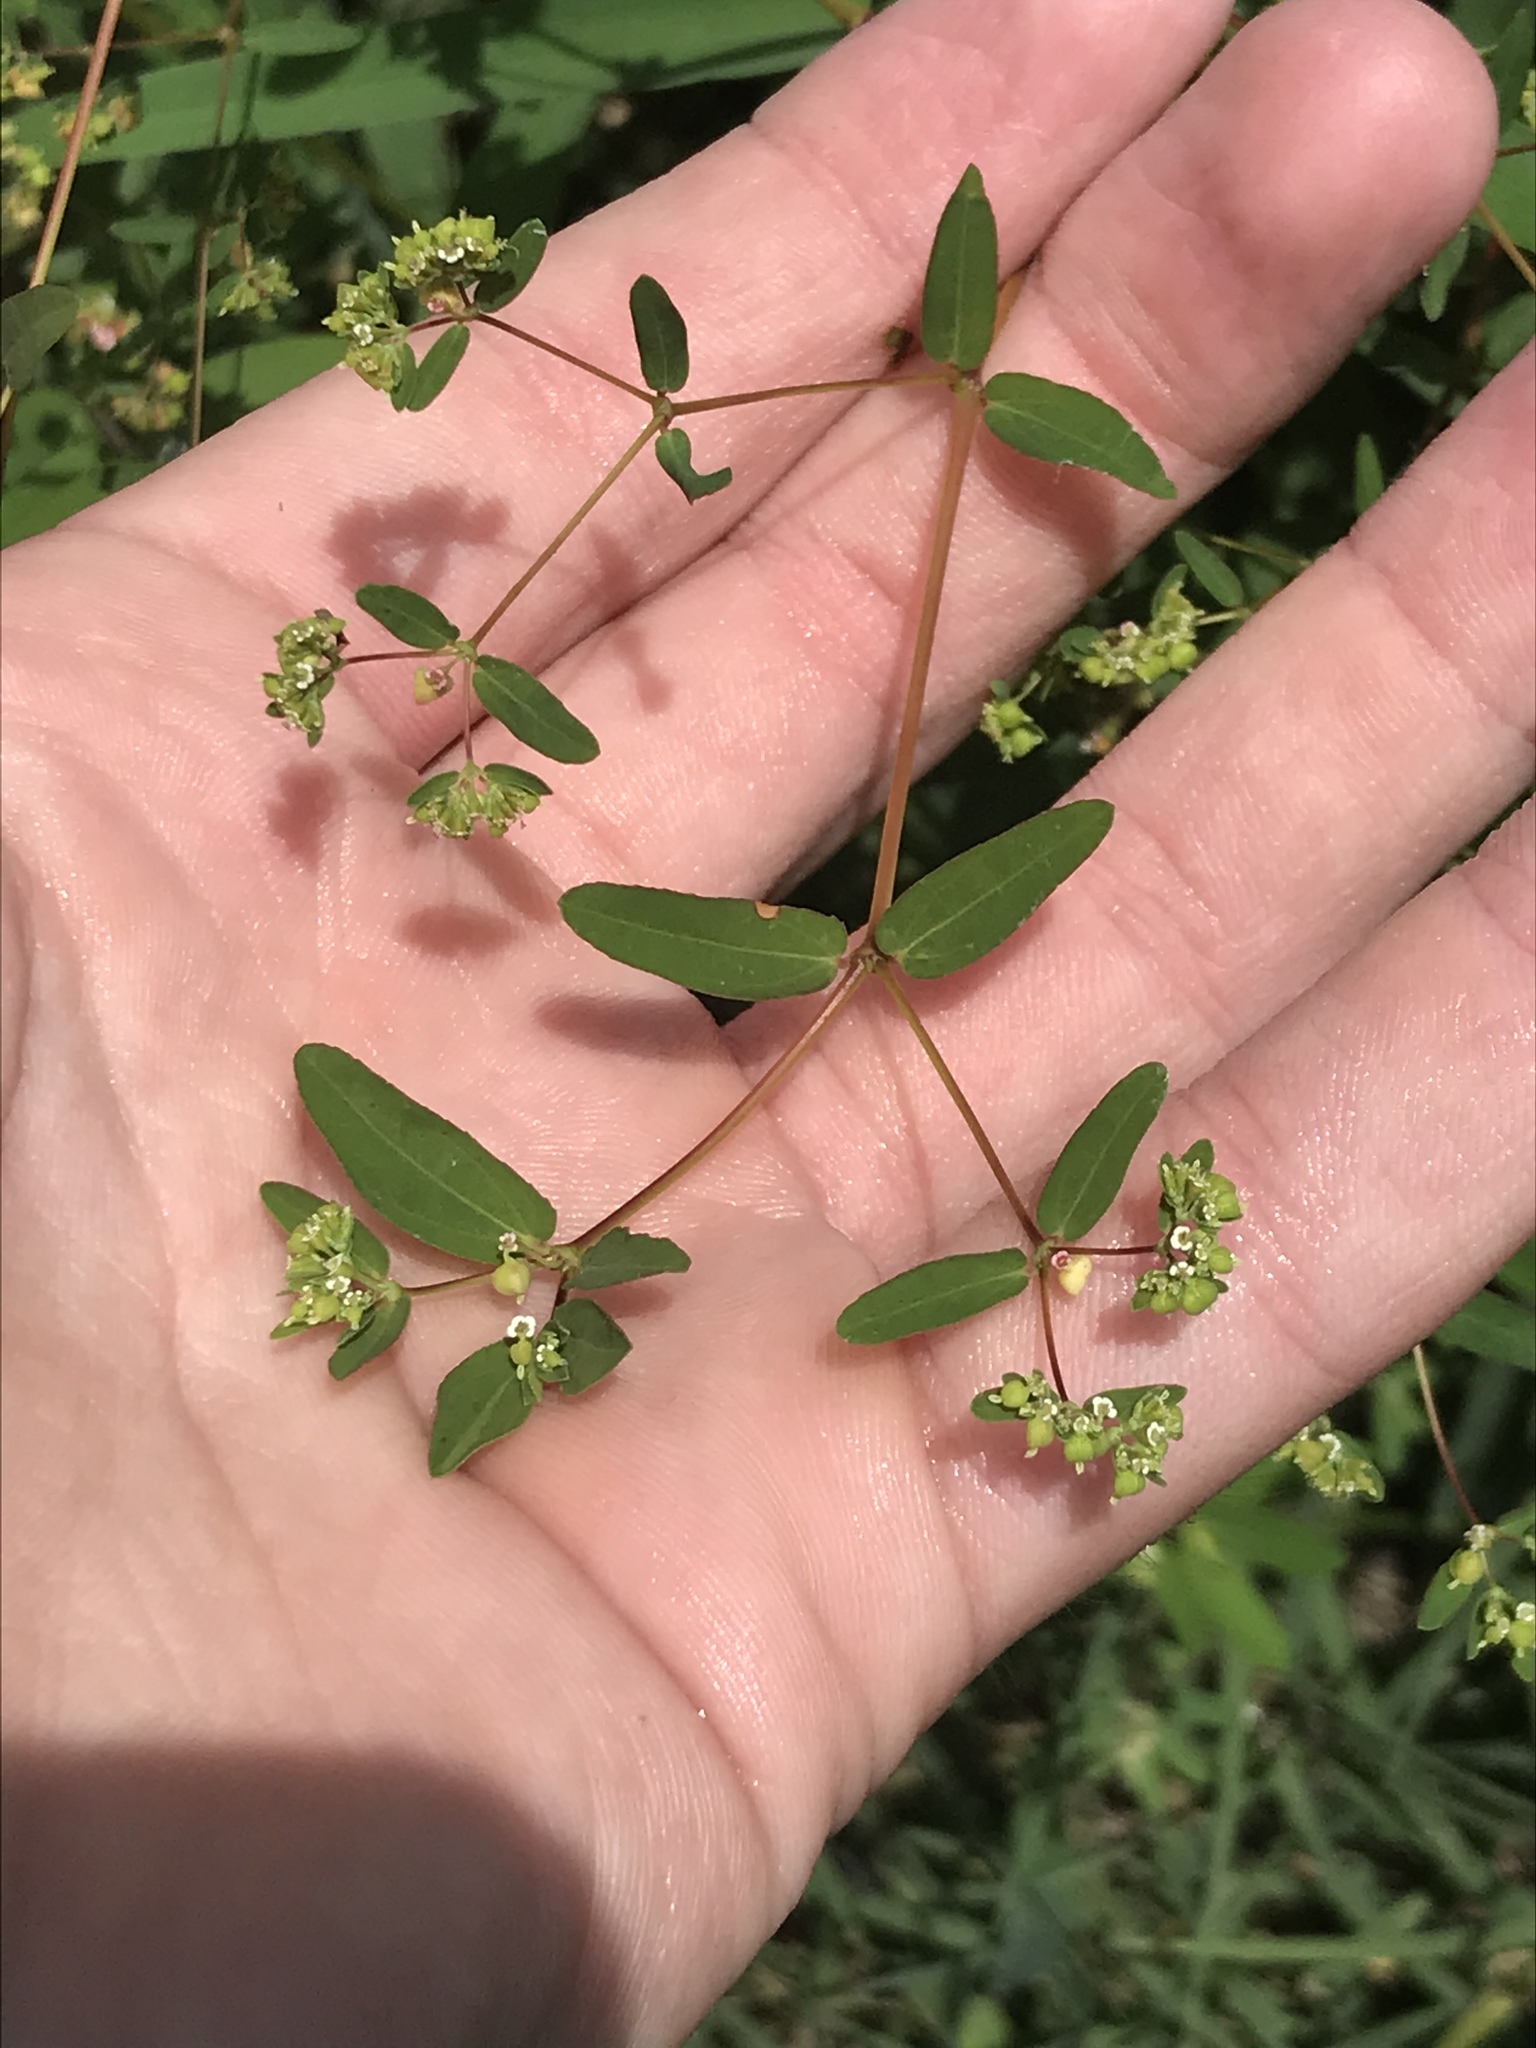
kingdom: Plantae
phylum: Tracheophyta
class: Magnoliopsida
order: Malpighiales
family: Euphorbiaceae
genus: Euphorbia
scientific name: Euphorbia hyssopifolia
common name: Hyssopleaf sandmat
